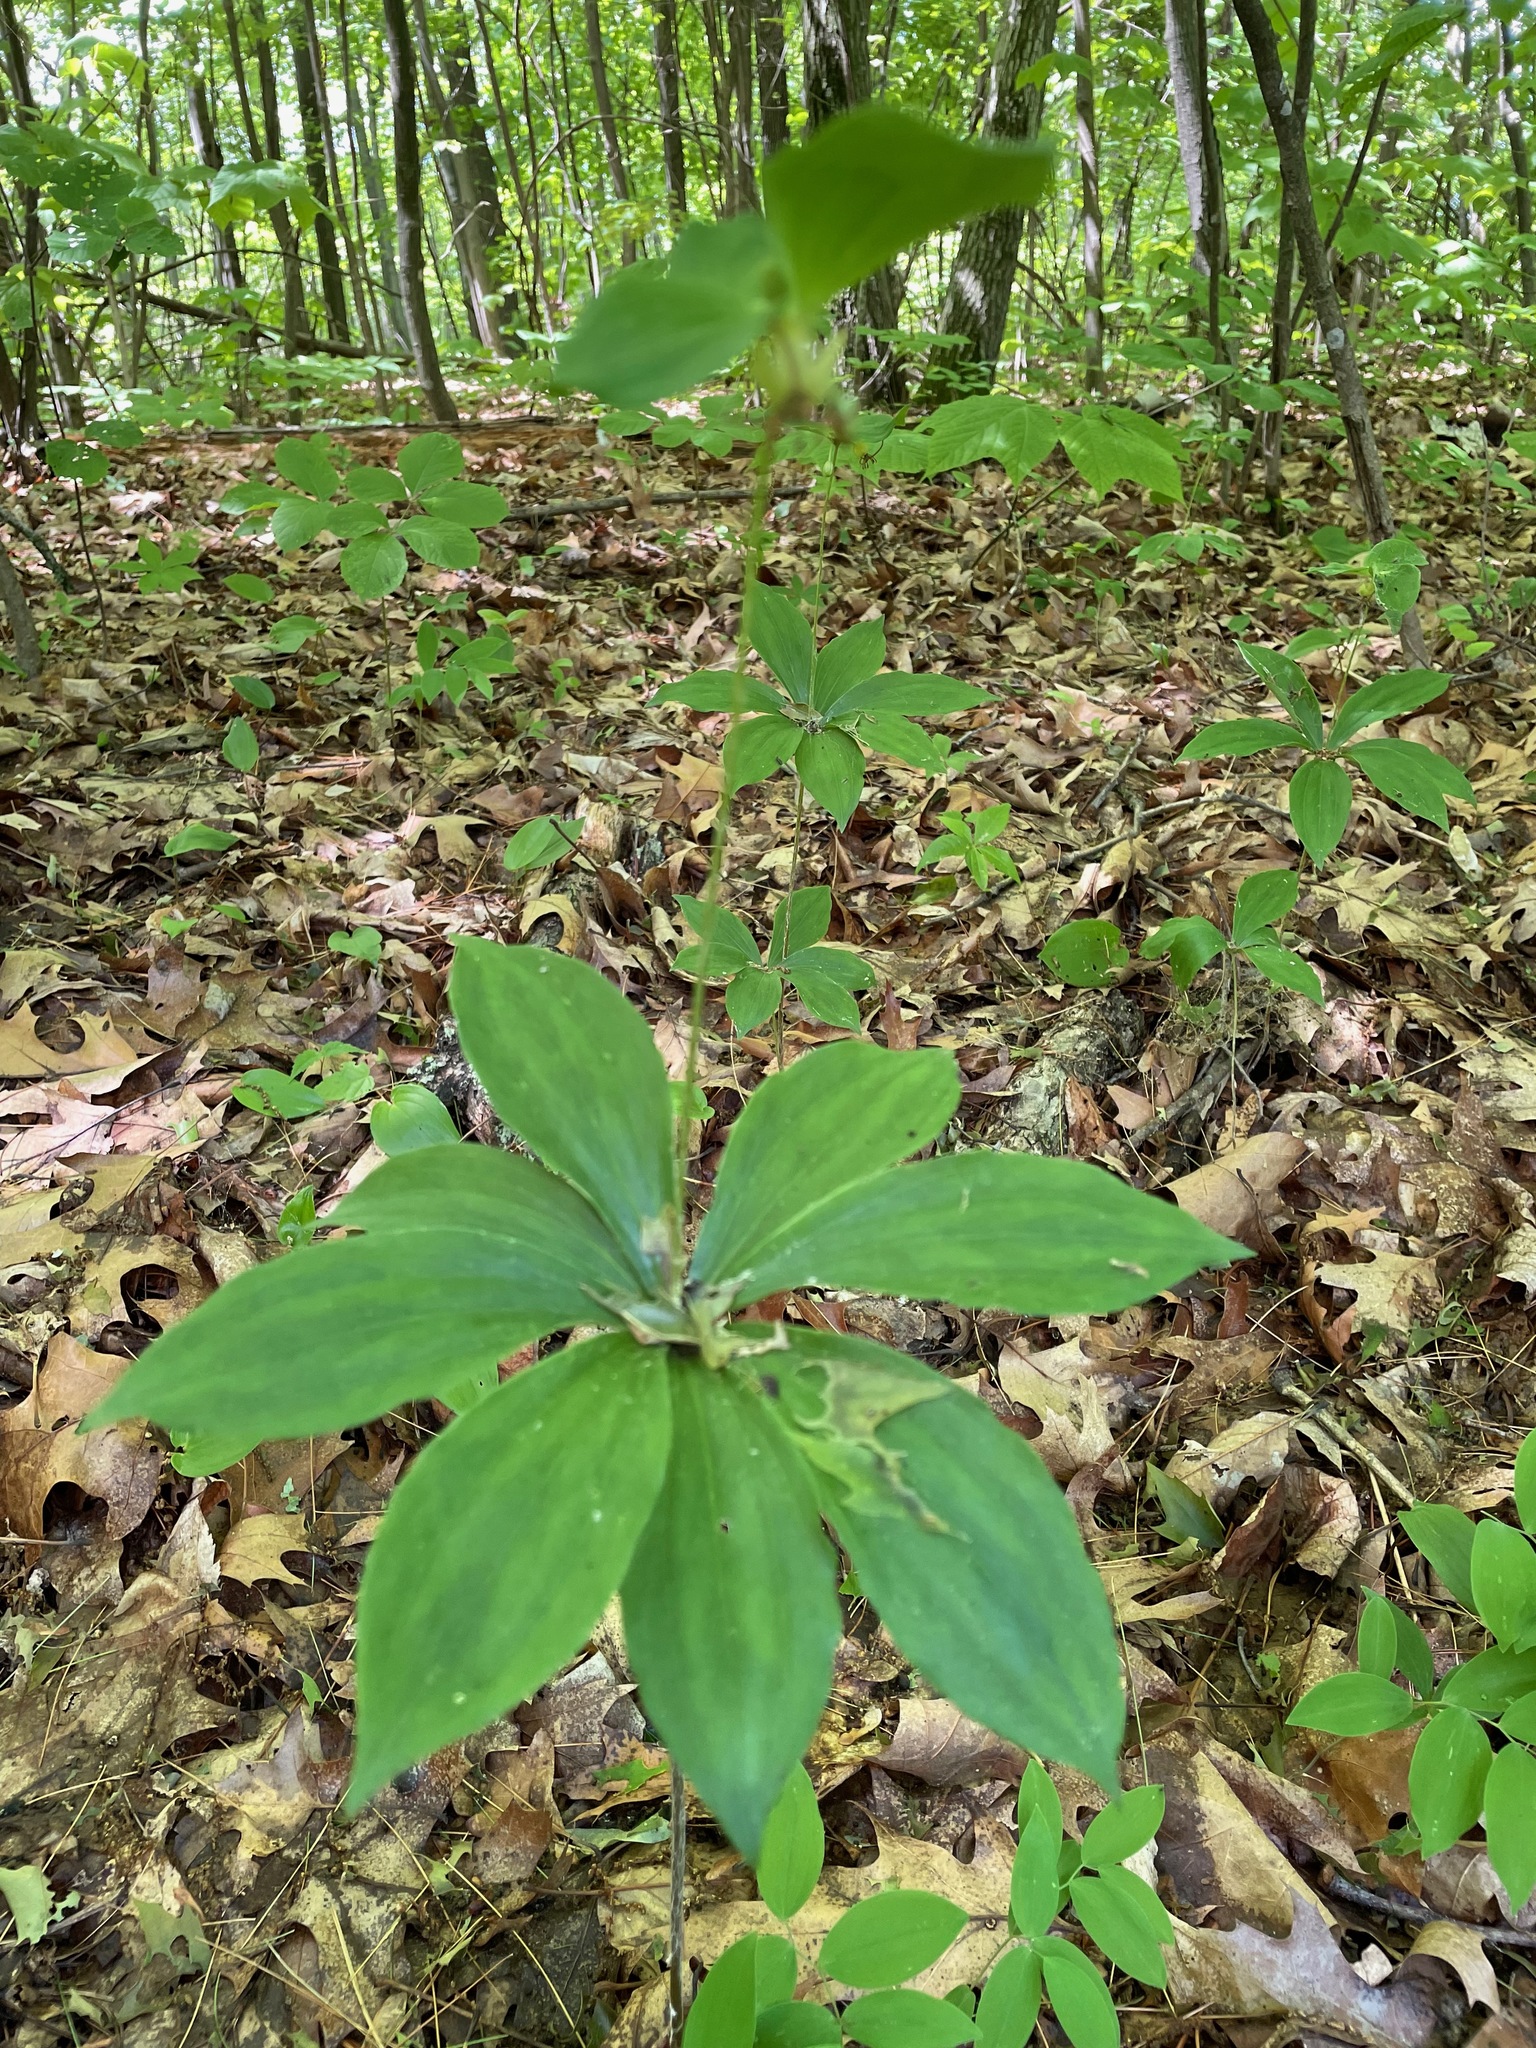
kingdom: Plantae
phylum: Tracheophyta
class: Liliopsida
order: Liliales
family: Liliaceae
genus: Medeola
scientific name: Medeola virginiana
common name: Indian cucumber-root
